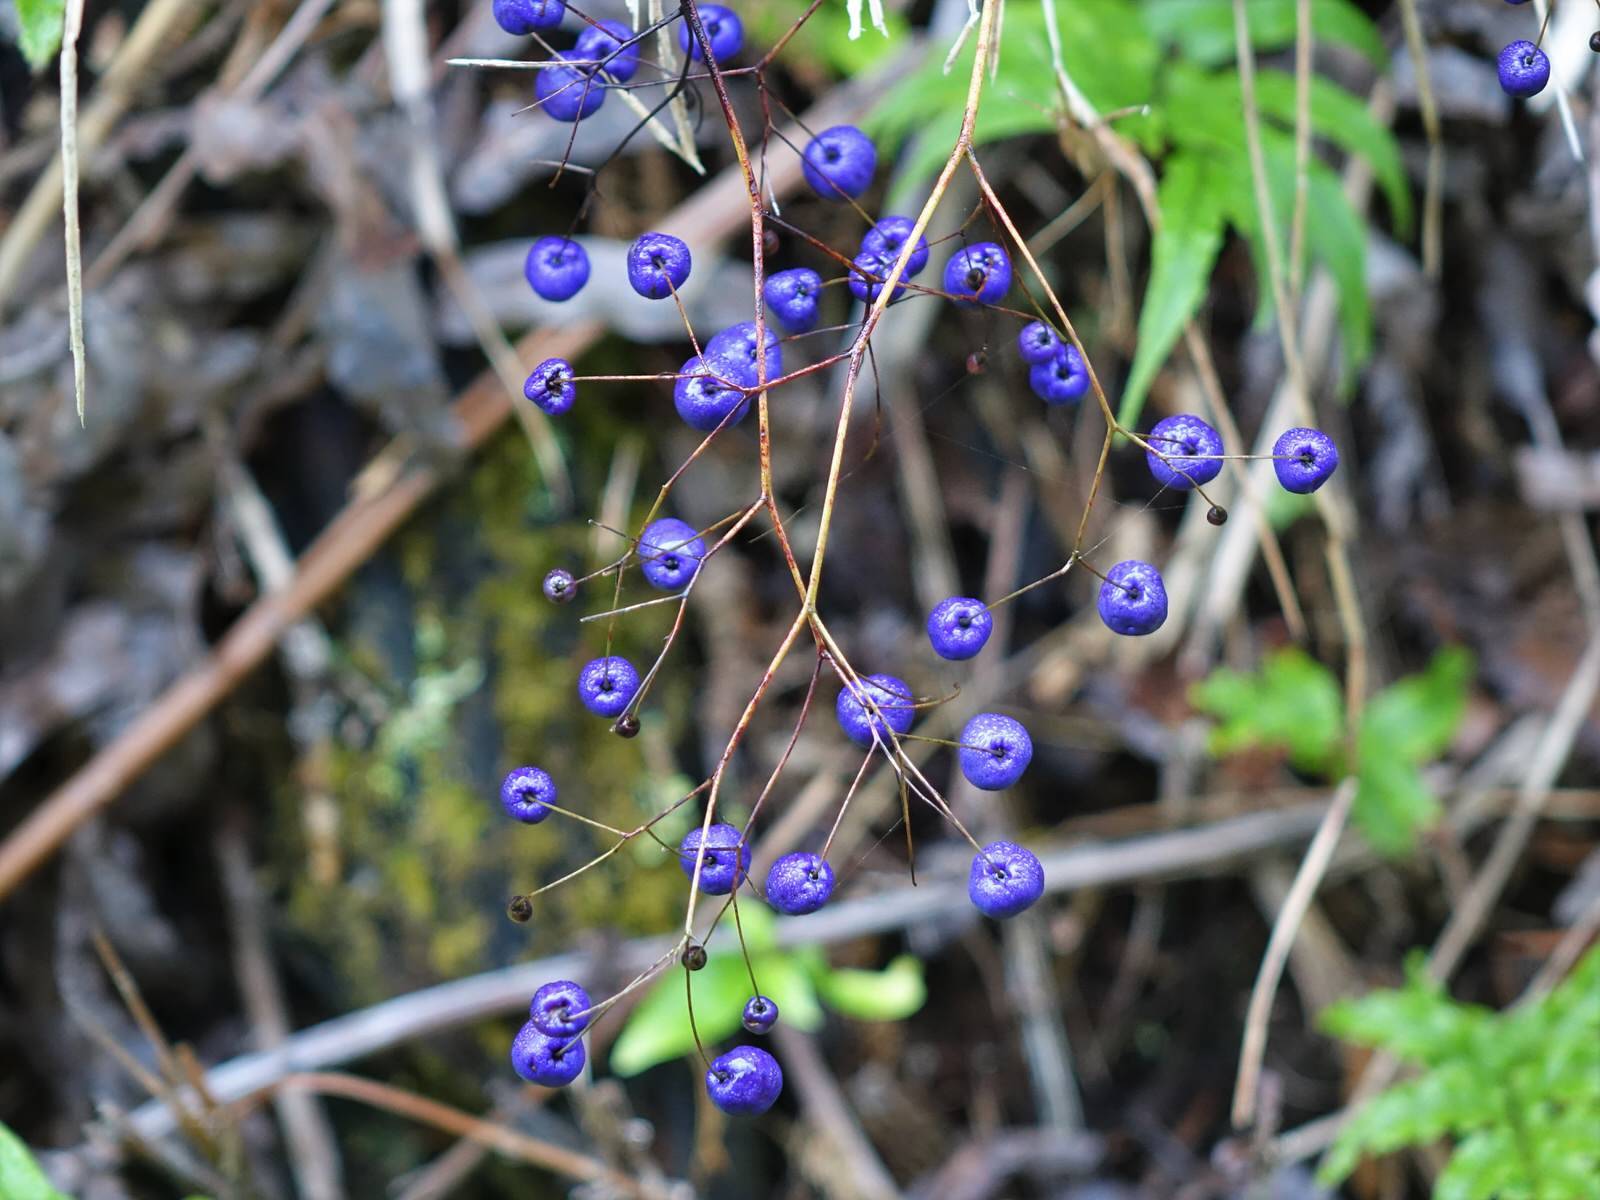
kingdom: Plantae
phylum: Tracheophyta
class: Liliopsida
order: Asparagales
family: Asphodelaceae
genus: Dianella
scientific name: Dianella nigra
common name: New zealand-blueberry
